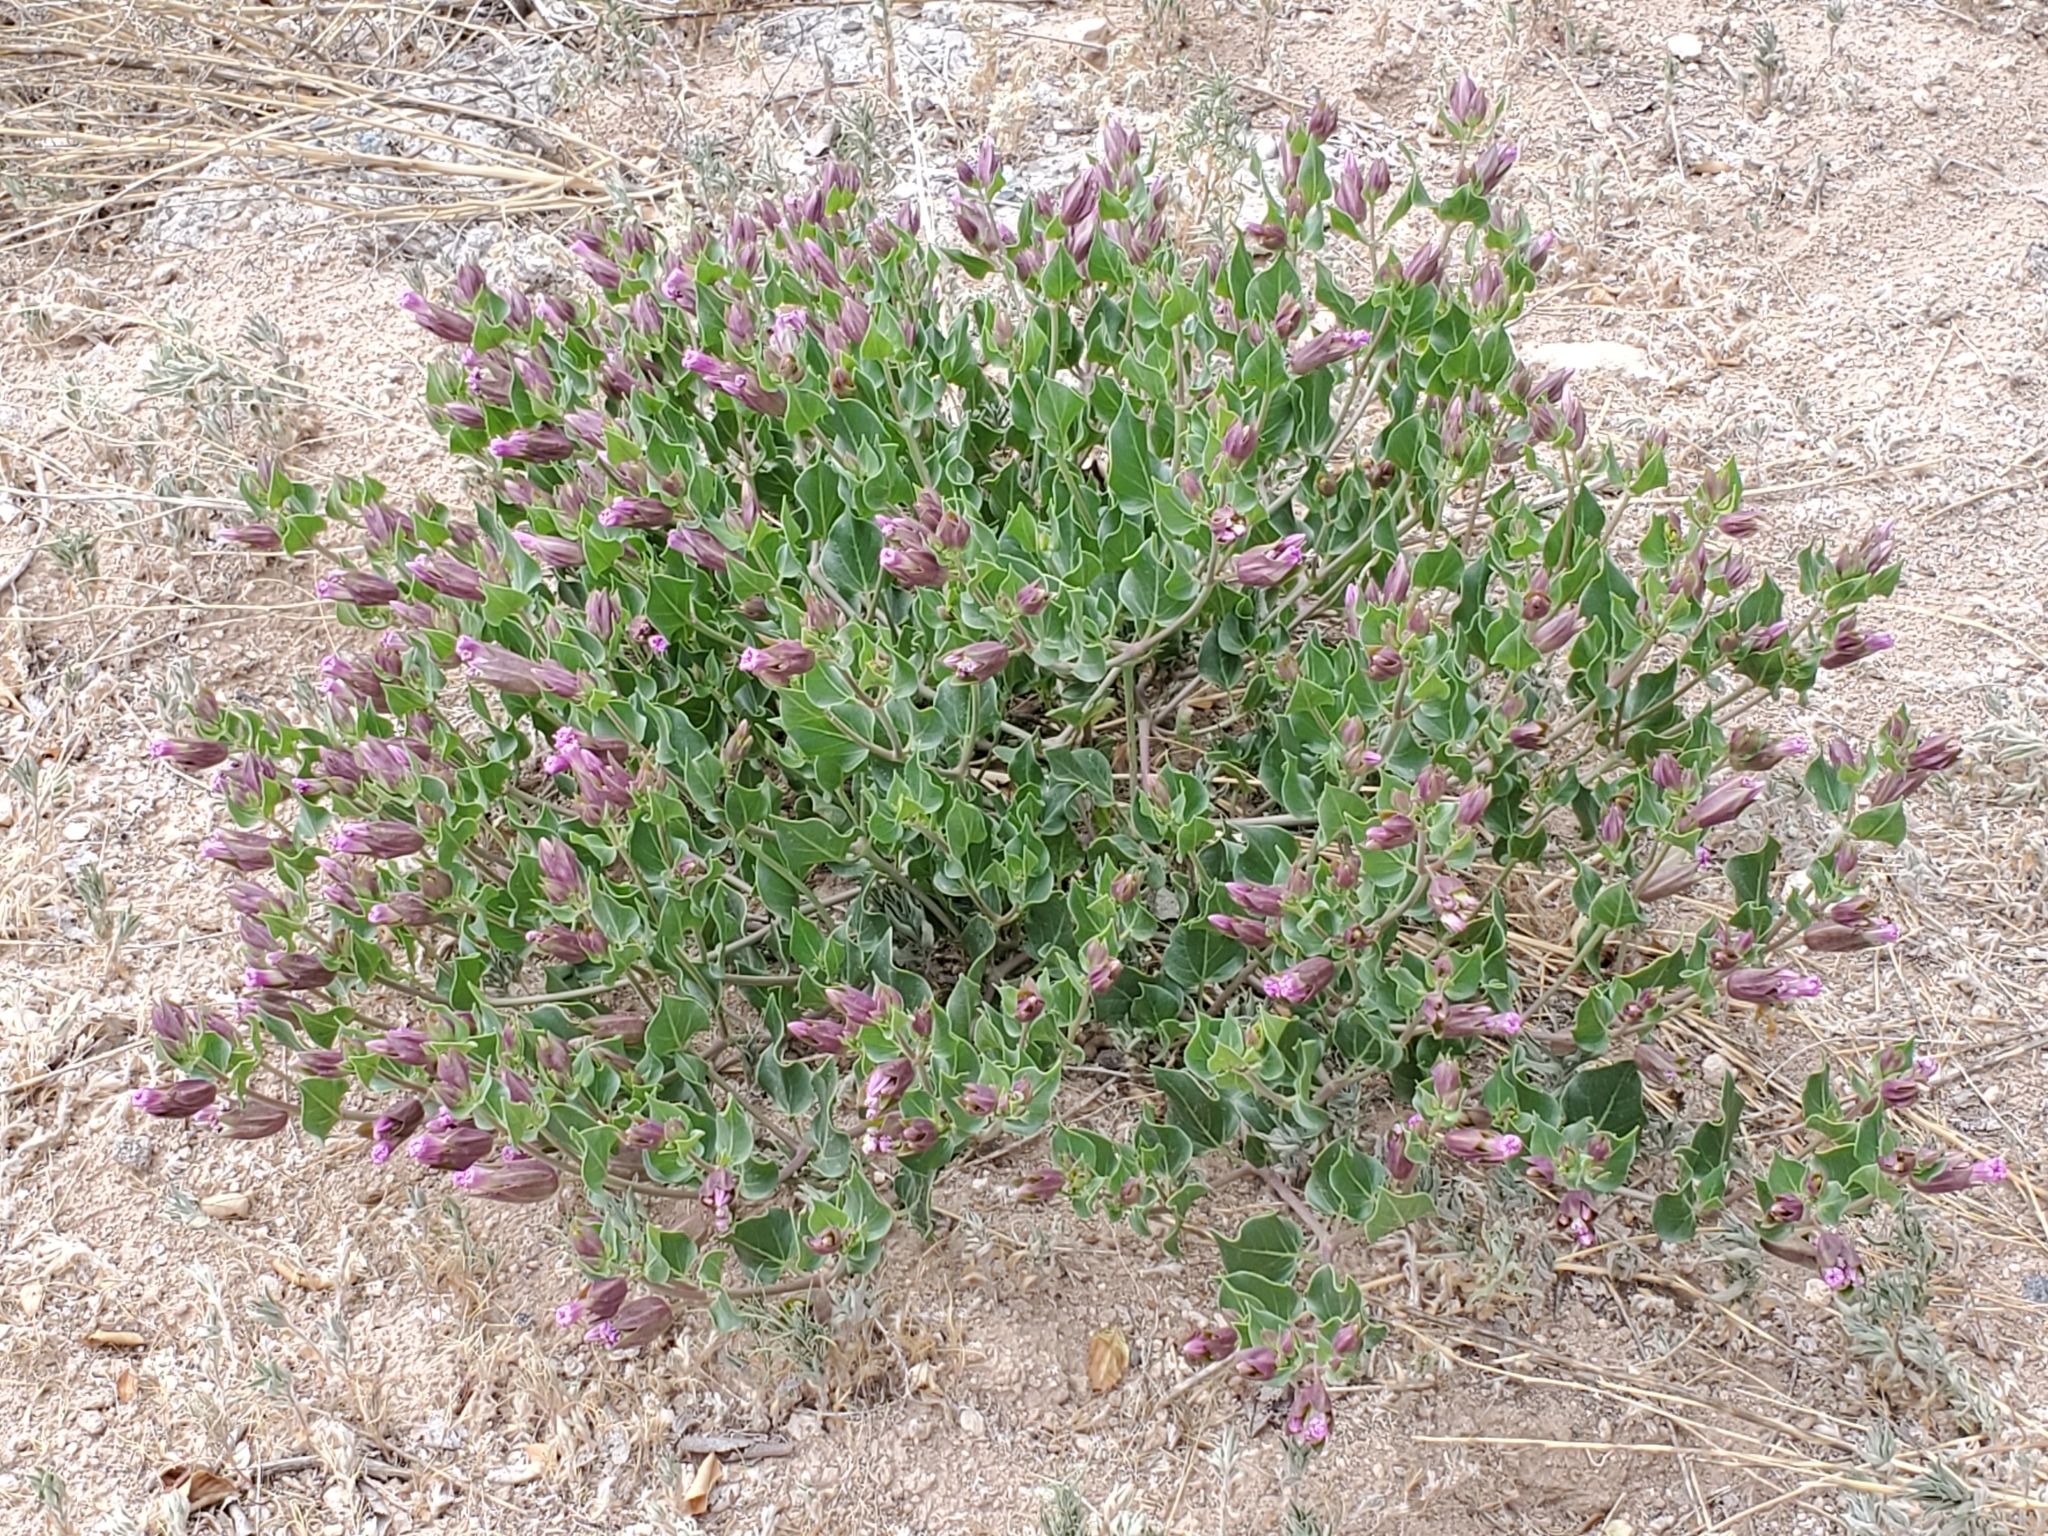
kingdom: Plantae
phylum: Tracheophyta
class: Magnoliopsida
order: Caryophyllales
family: Nyctaginaceae
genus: Mirabilis
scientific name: Mirabilis multiflora
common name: Froebel's four-o'clock
